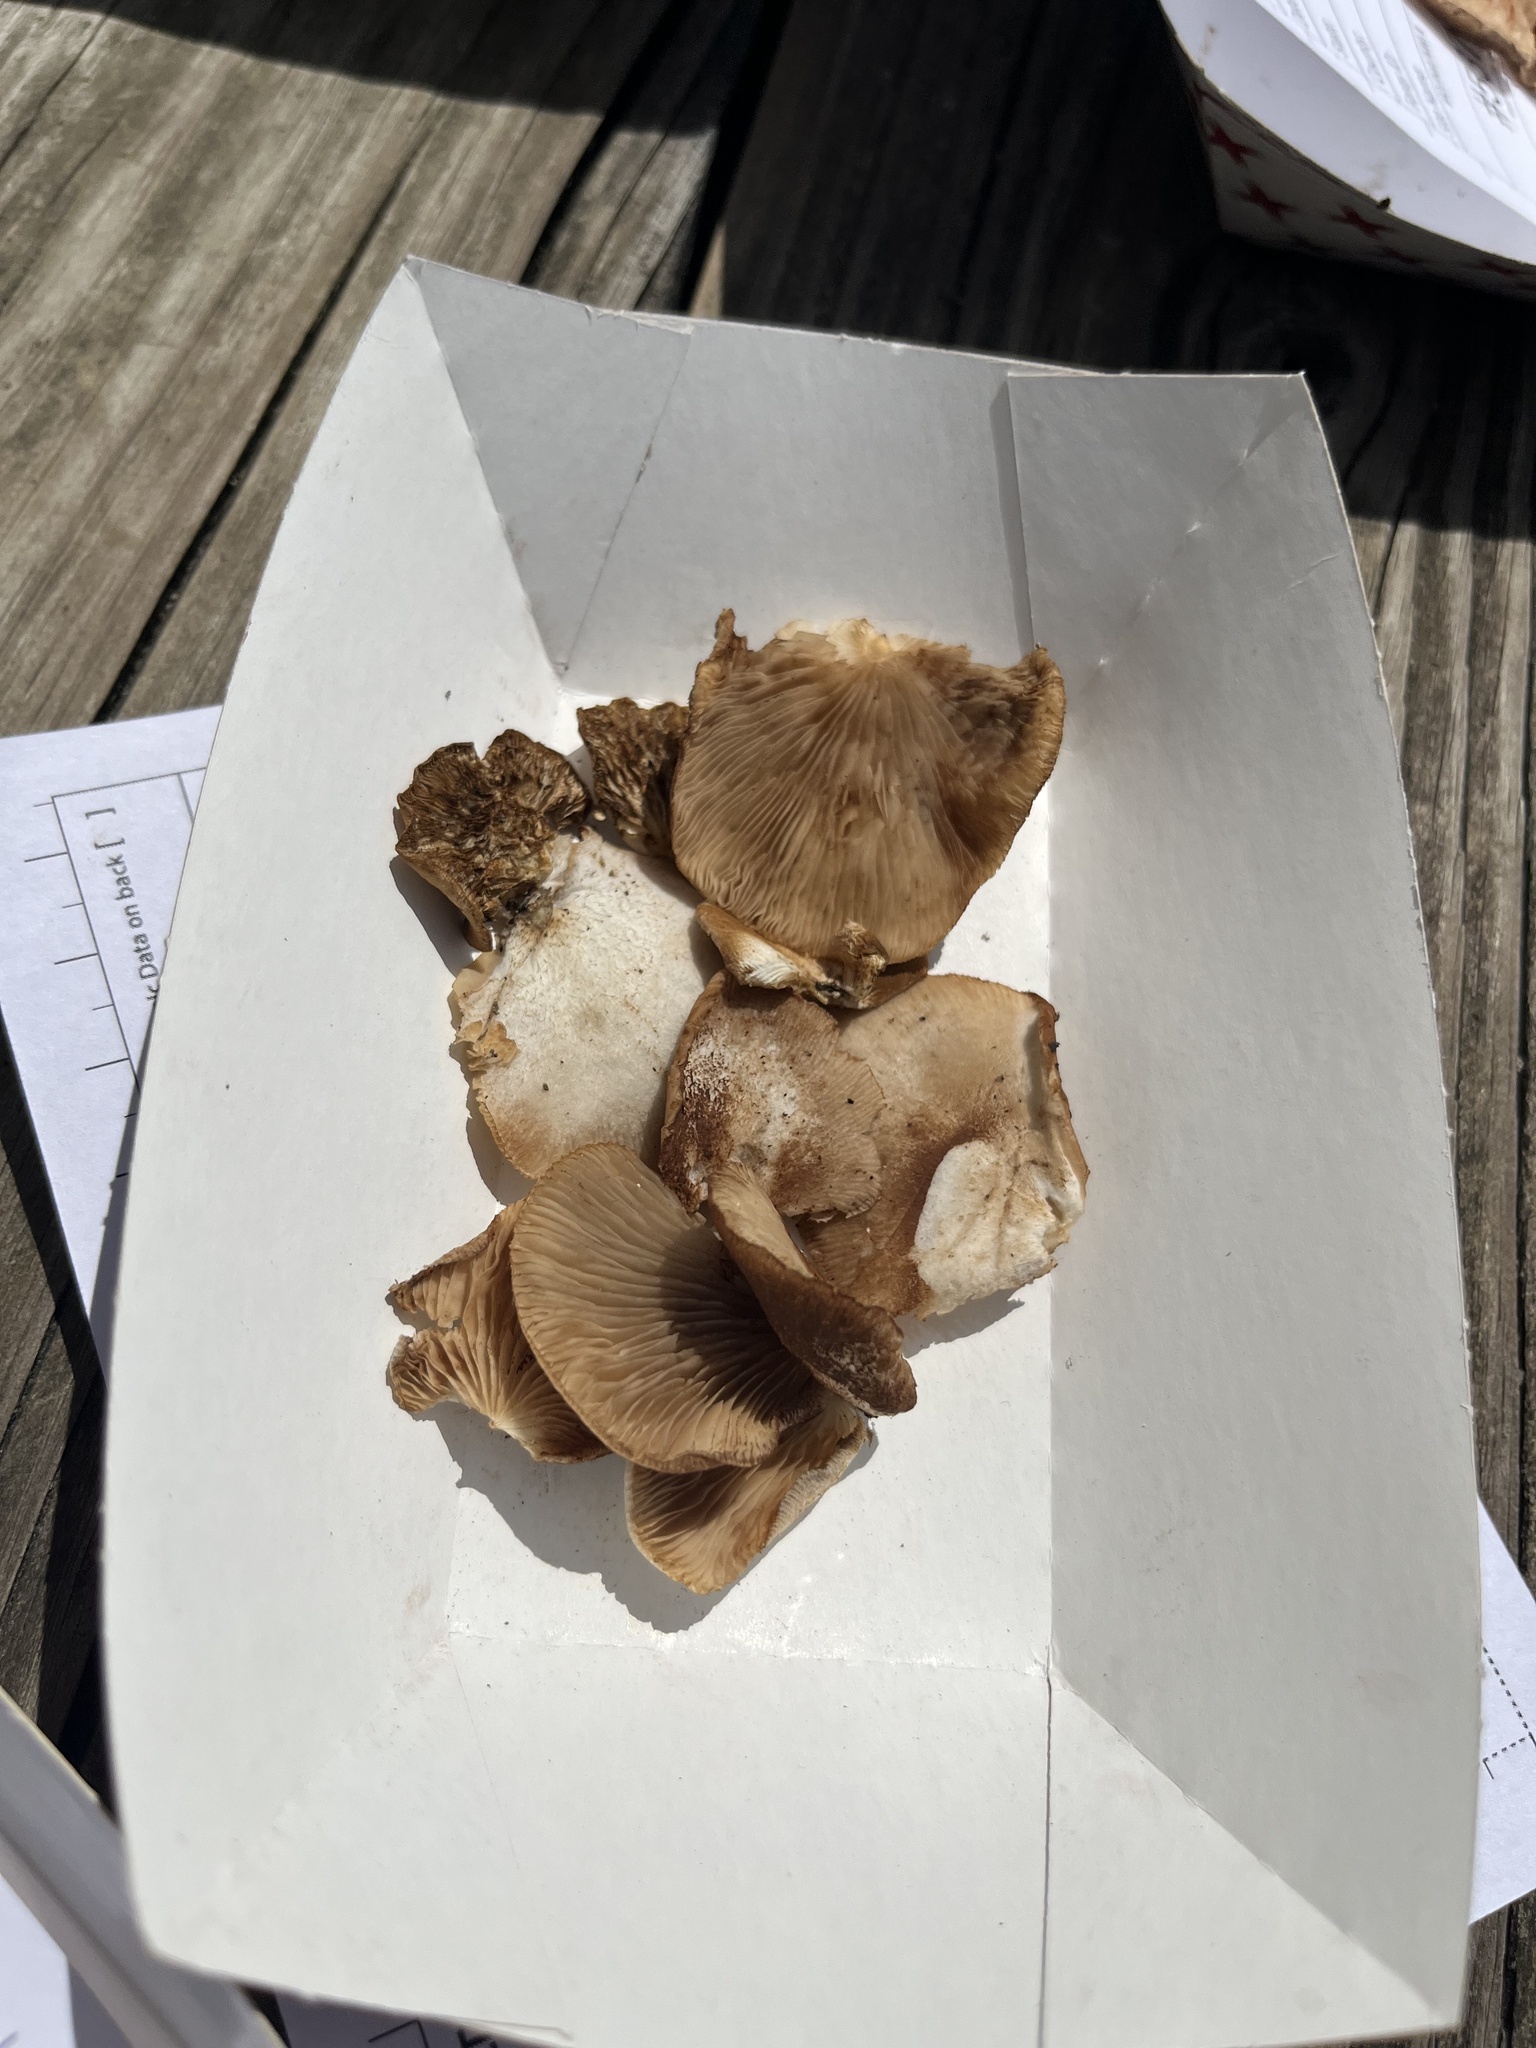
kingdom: Fungi
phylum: Basidiomycota
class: Agaricomycetes
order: Agaricales
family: Crepidotaceae
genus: Crepidotus
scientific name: Crepidotus applanatus
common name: Flat crep
